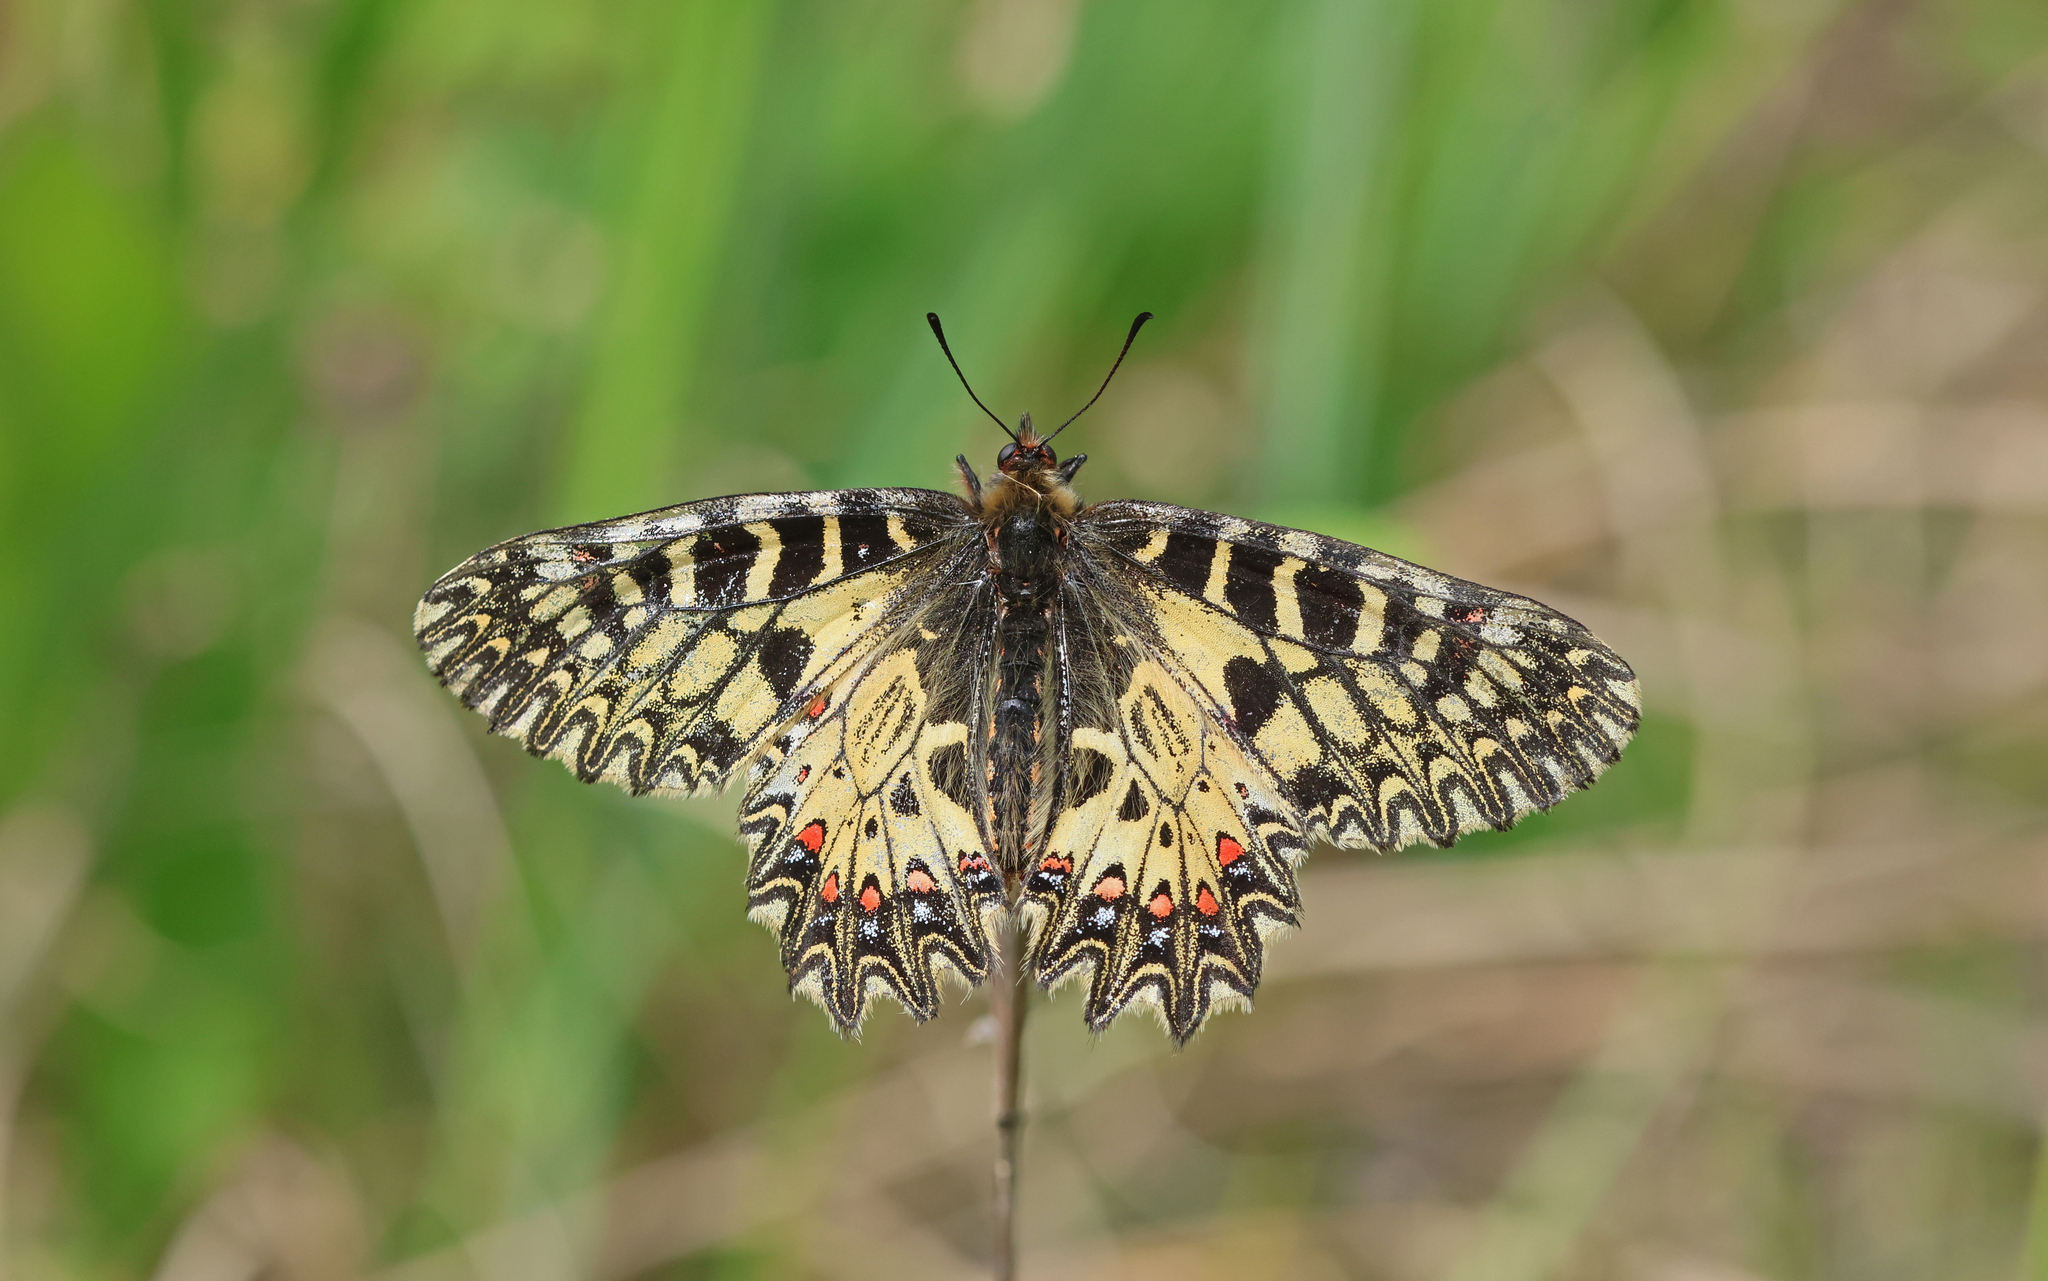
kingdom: Animalia
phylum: Arthropoda
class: Insecta
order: Lepidoptera
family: Papilionidae
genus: Zerynthia
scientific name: Zerynthia polyxena
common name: Southern festoon
